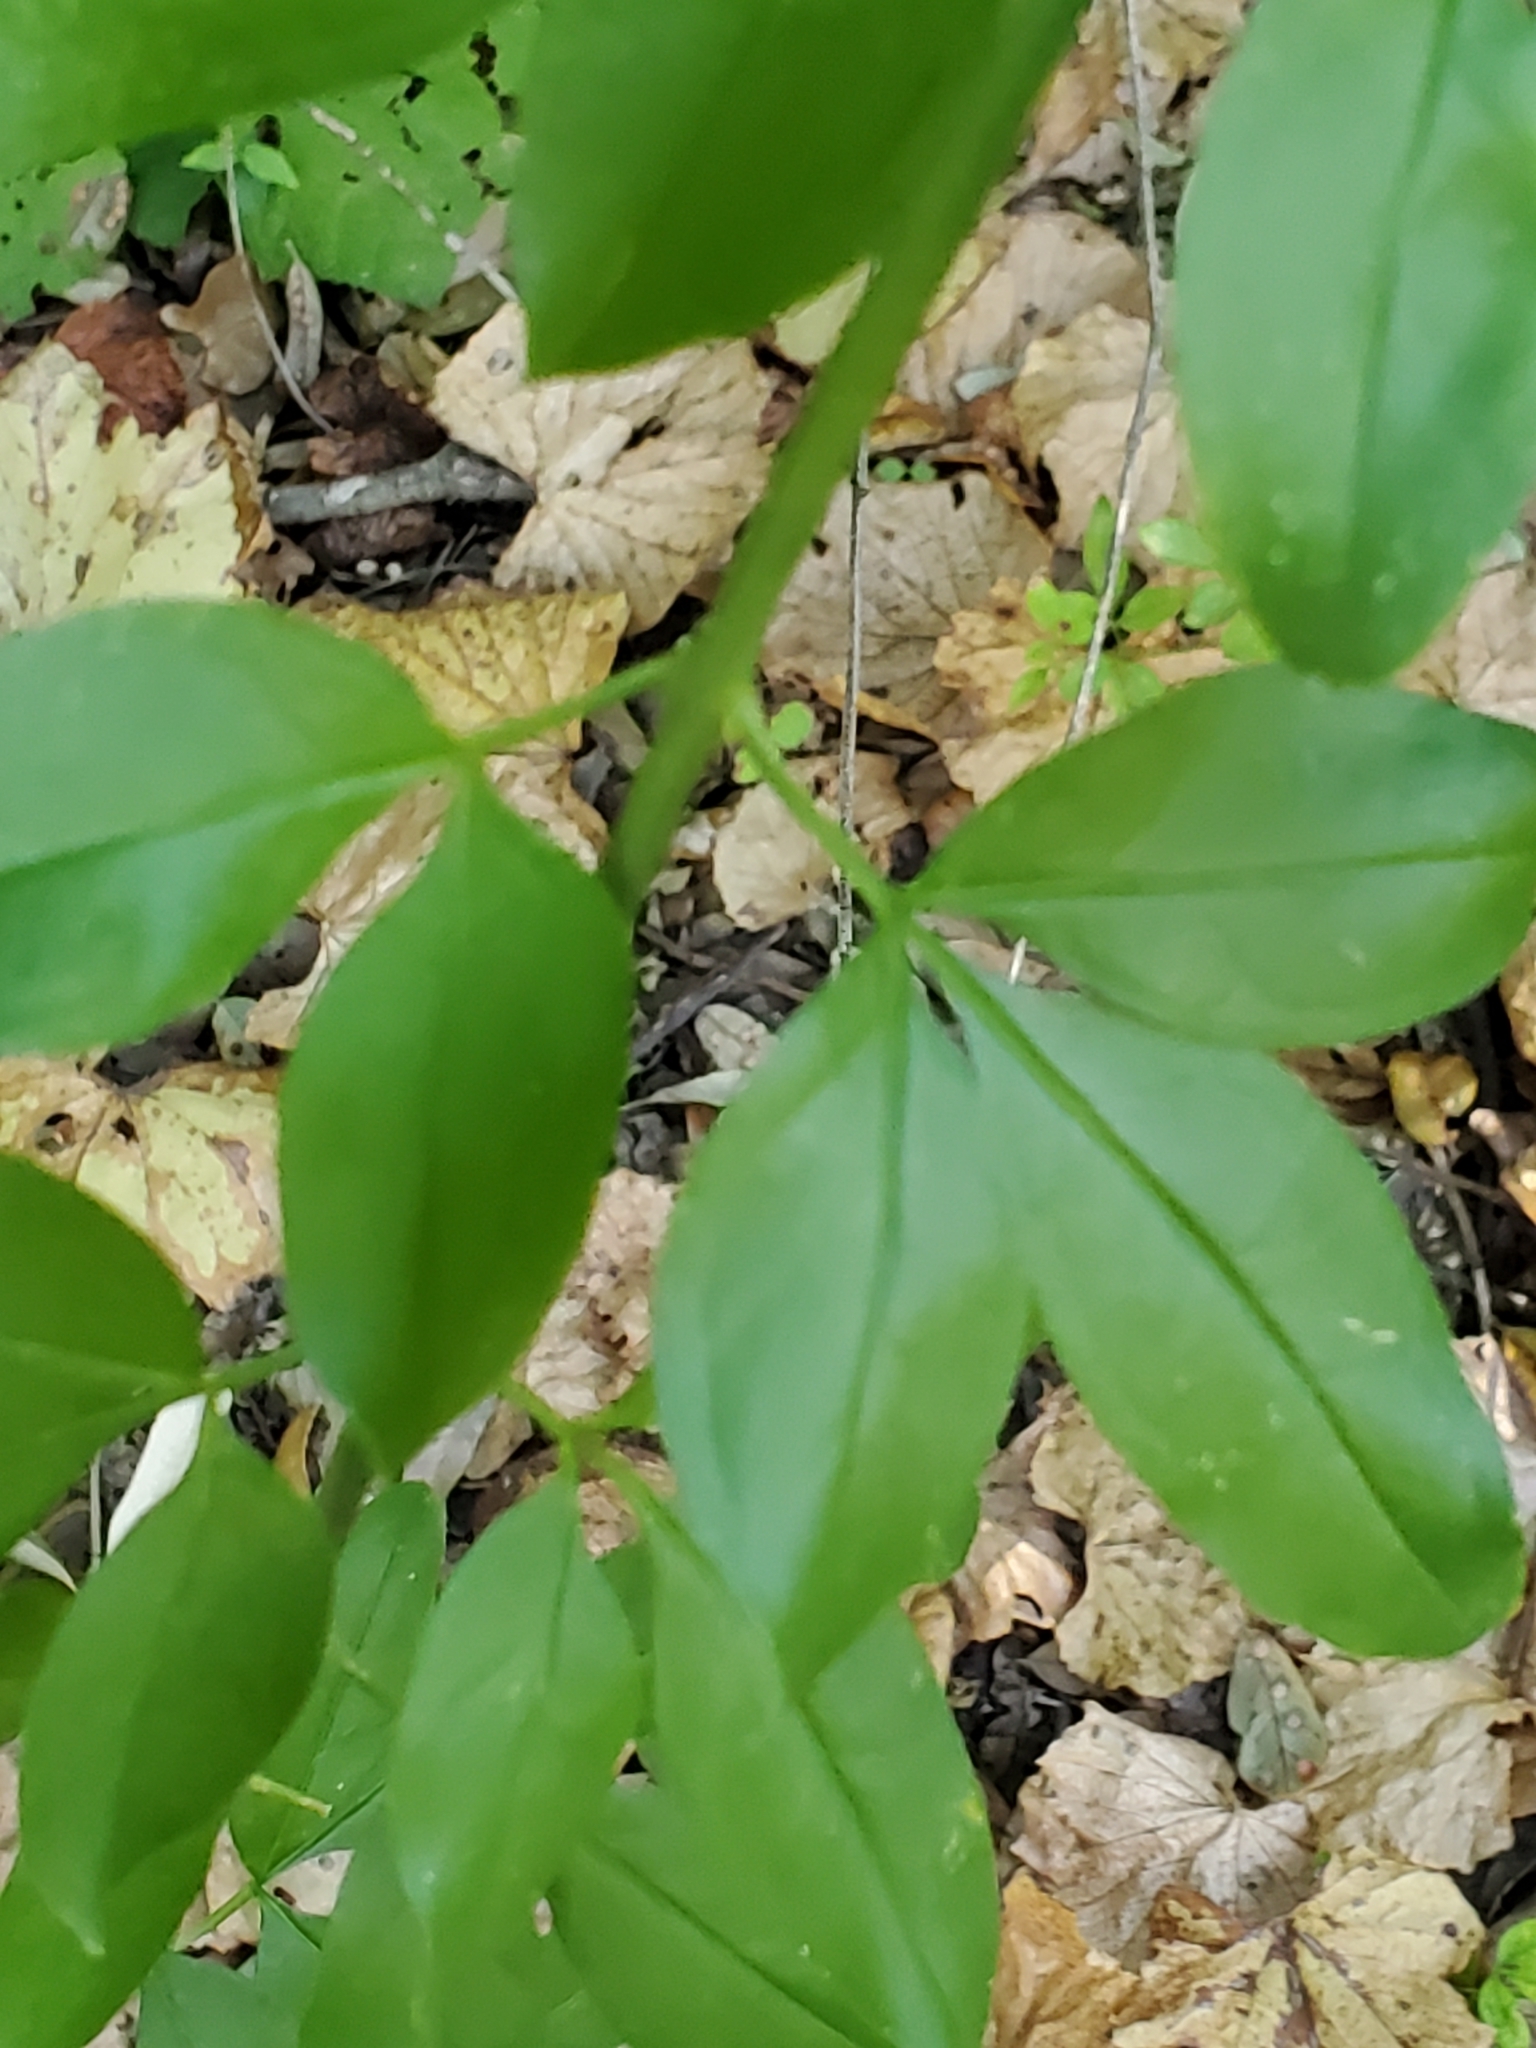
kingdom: Plantae
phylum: Tracheophyta
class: Magnoliopsida
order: Lamiales
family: Oleaceae
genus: Jasminum
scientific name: Jasminum mesnyi
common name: Japanese jasmine
